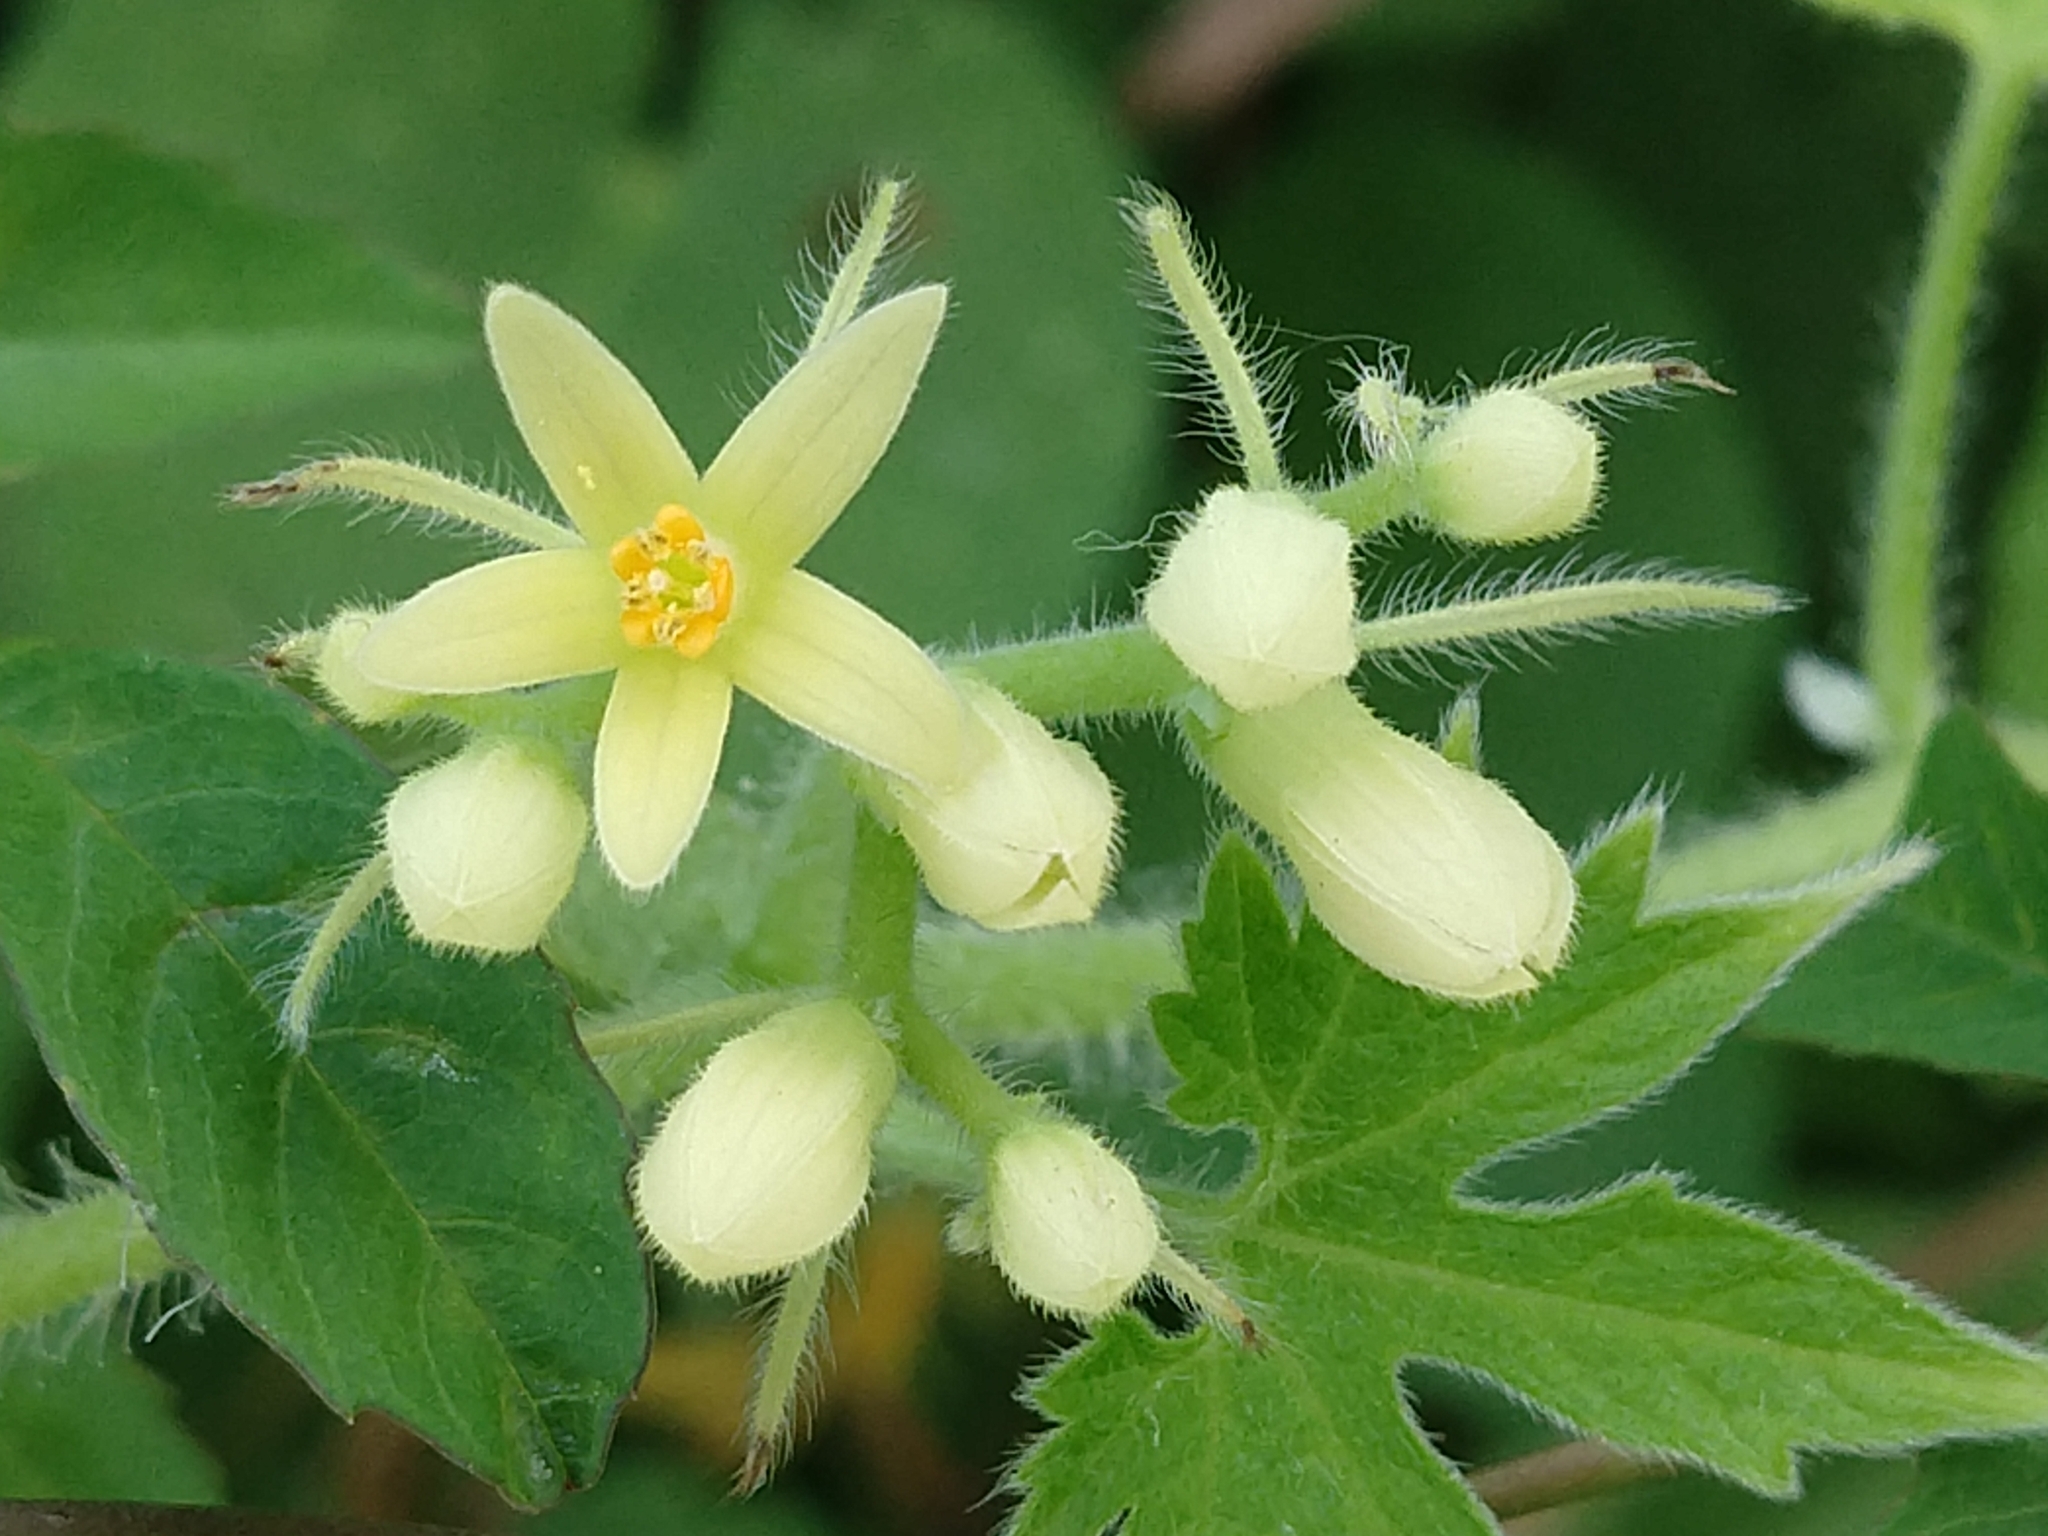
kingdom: Plantae
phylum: Tracheophyta
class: Magnoliopsida
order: Cornales
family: Loasaceae
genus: Gronovia
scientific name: Gronovia scandens
